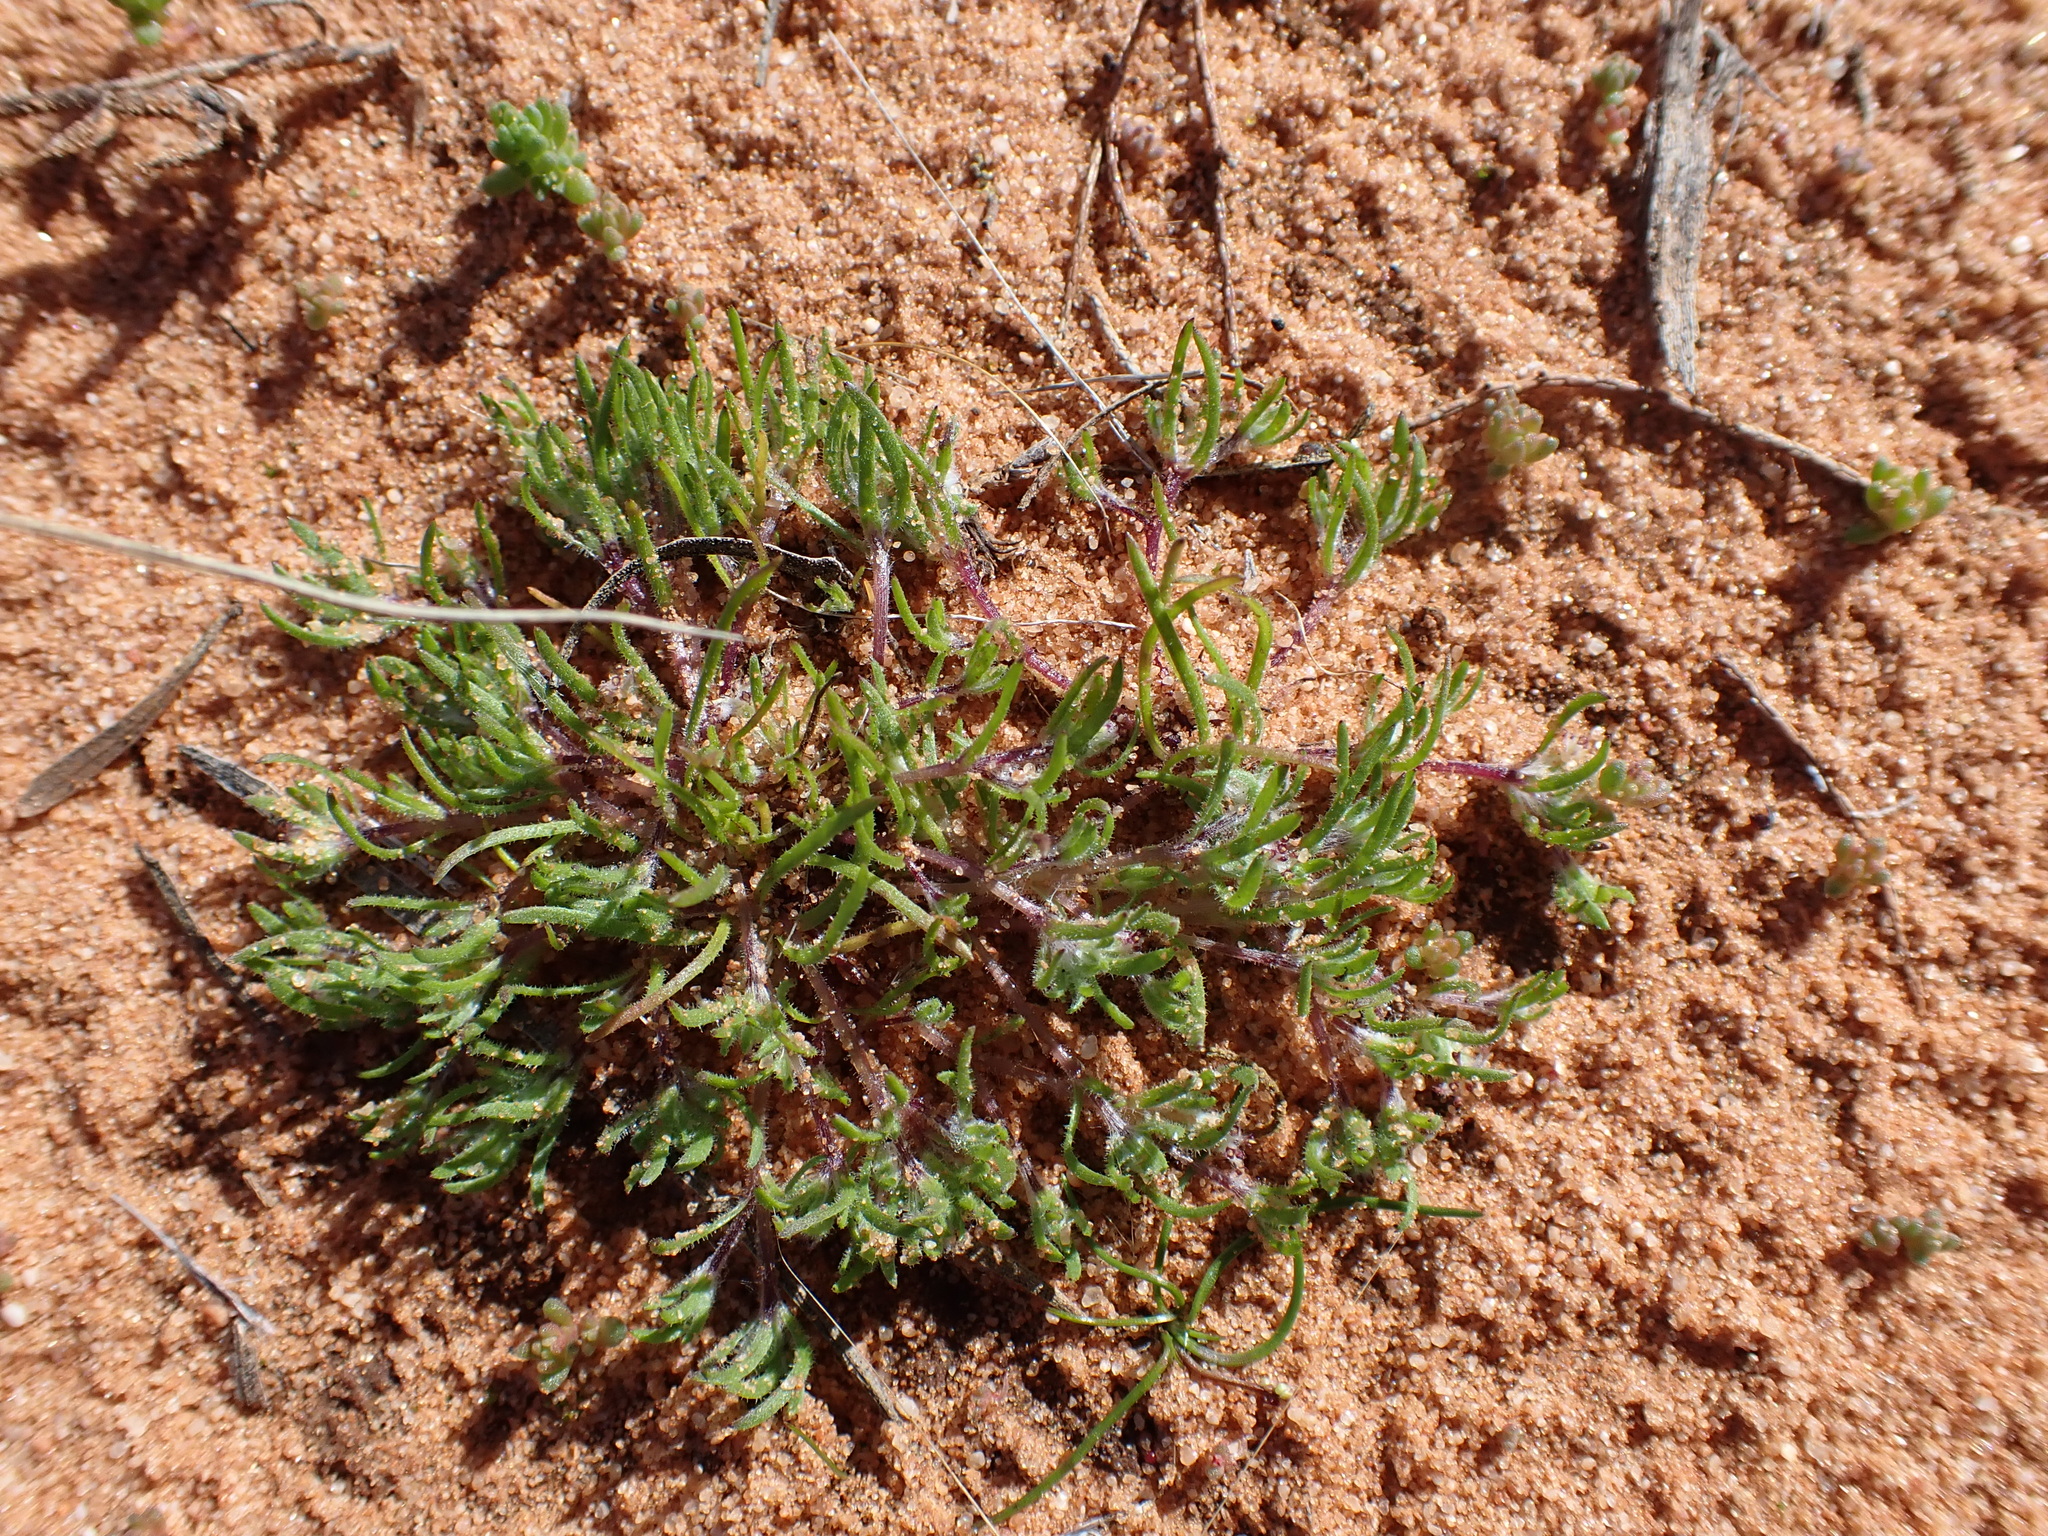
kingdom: Plantae
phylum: Tracheophyta
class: Magnoliopsida
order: Asterales
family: Asteraceae
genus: Millotia
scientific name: Millotia perpusilla
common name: Tiny bow-flower
